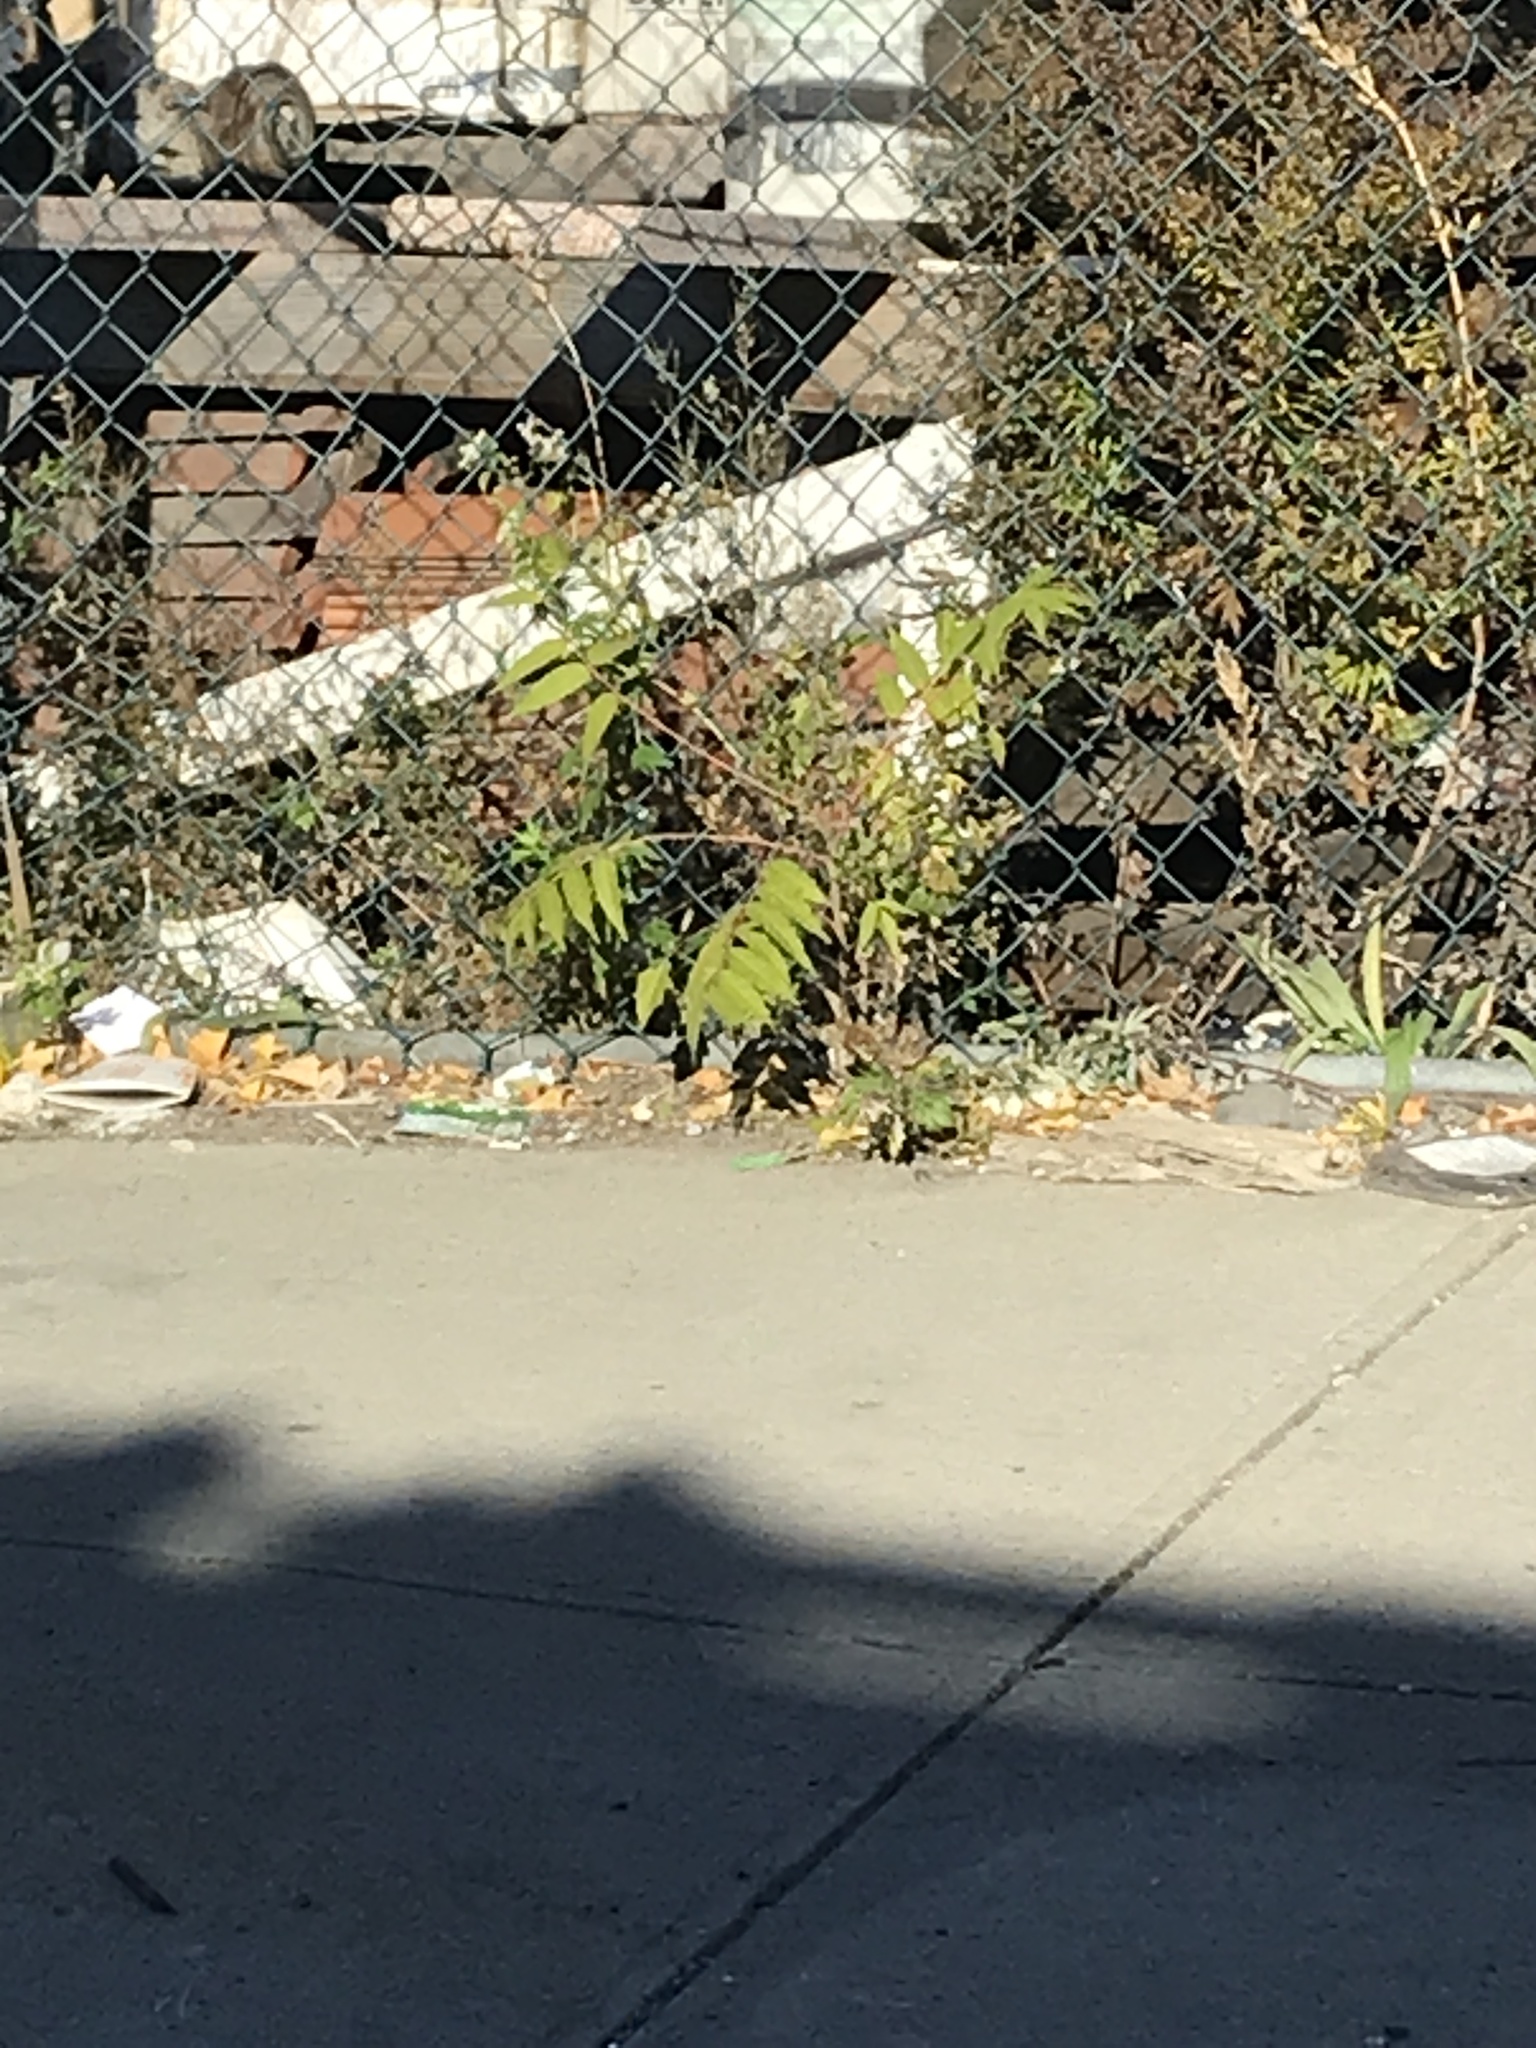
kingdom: Plantae
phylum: Tracheophyta
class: Magnoliopsida
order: Sapindales
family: Simaroubaceae
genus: Ailanthus
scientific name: Ailanthus altissima
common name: Tree-of-heaven
